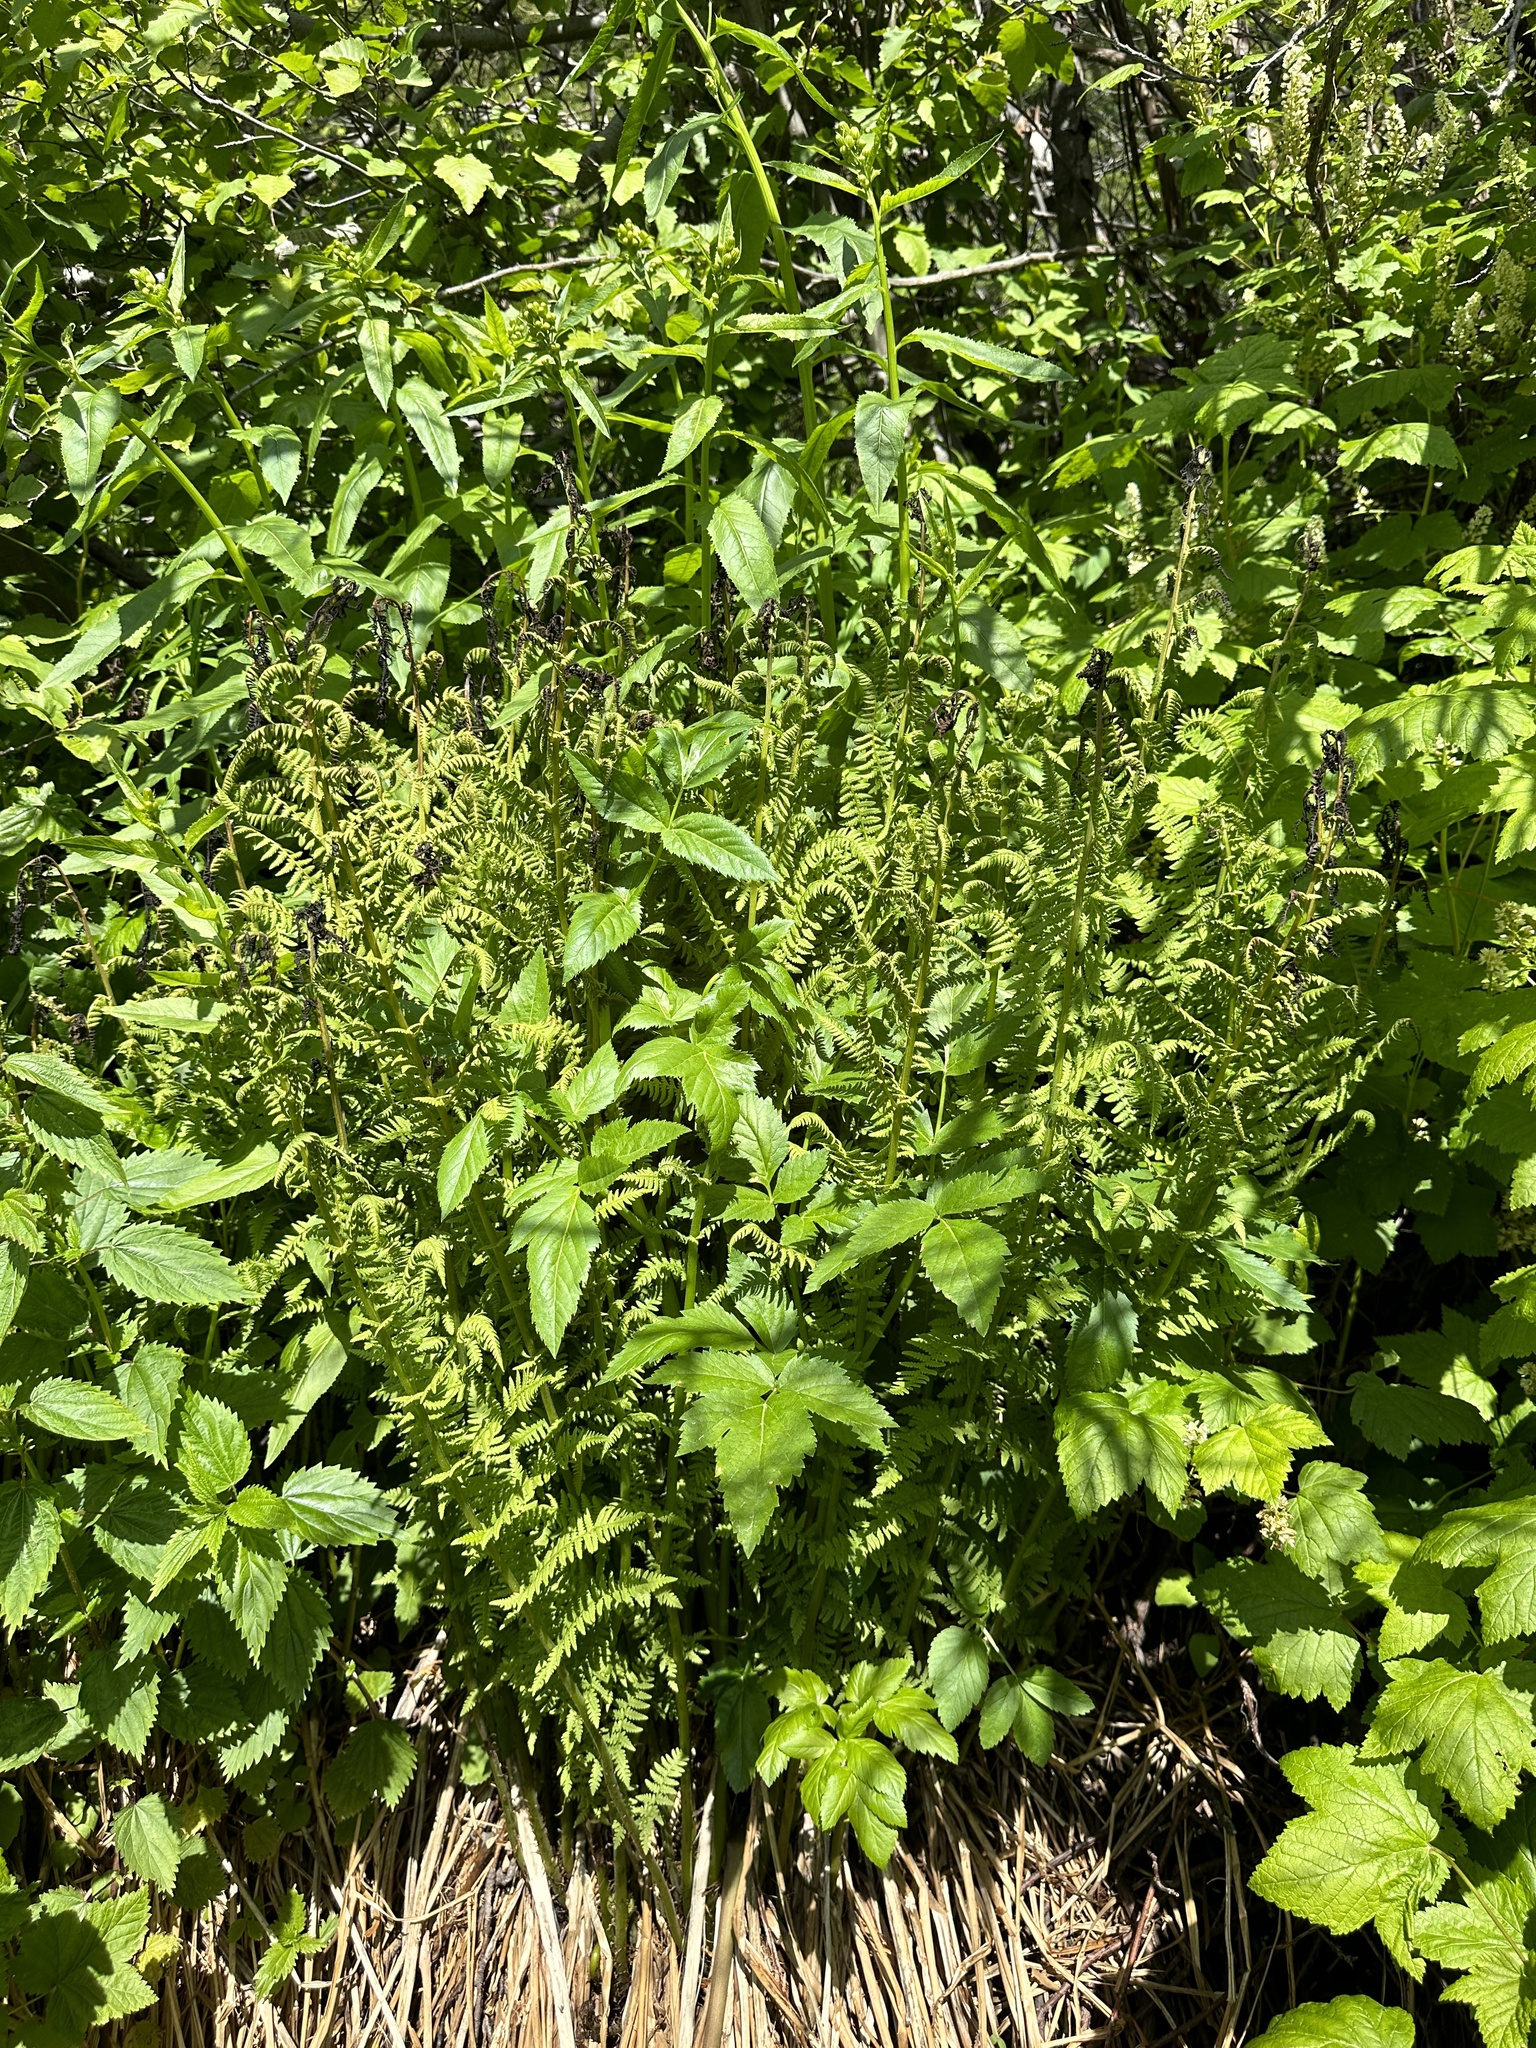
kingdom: Plantae
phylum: Tracheophyta
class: Polypodiopsida
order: Polypodiales
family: Athyriaceae
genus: Athyrium
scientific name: Athyrium filix-femina
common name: Lady fern
